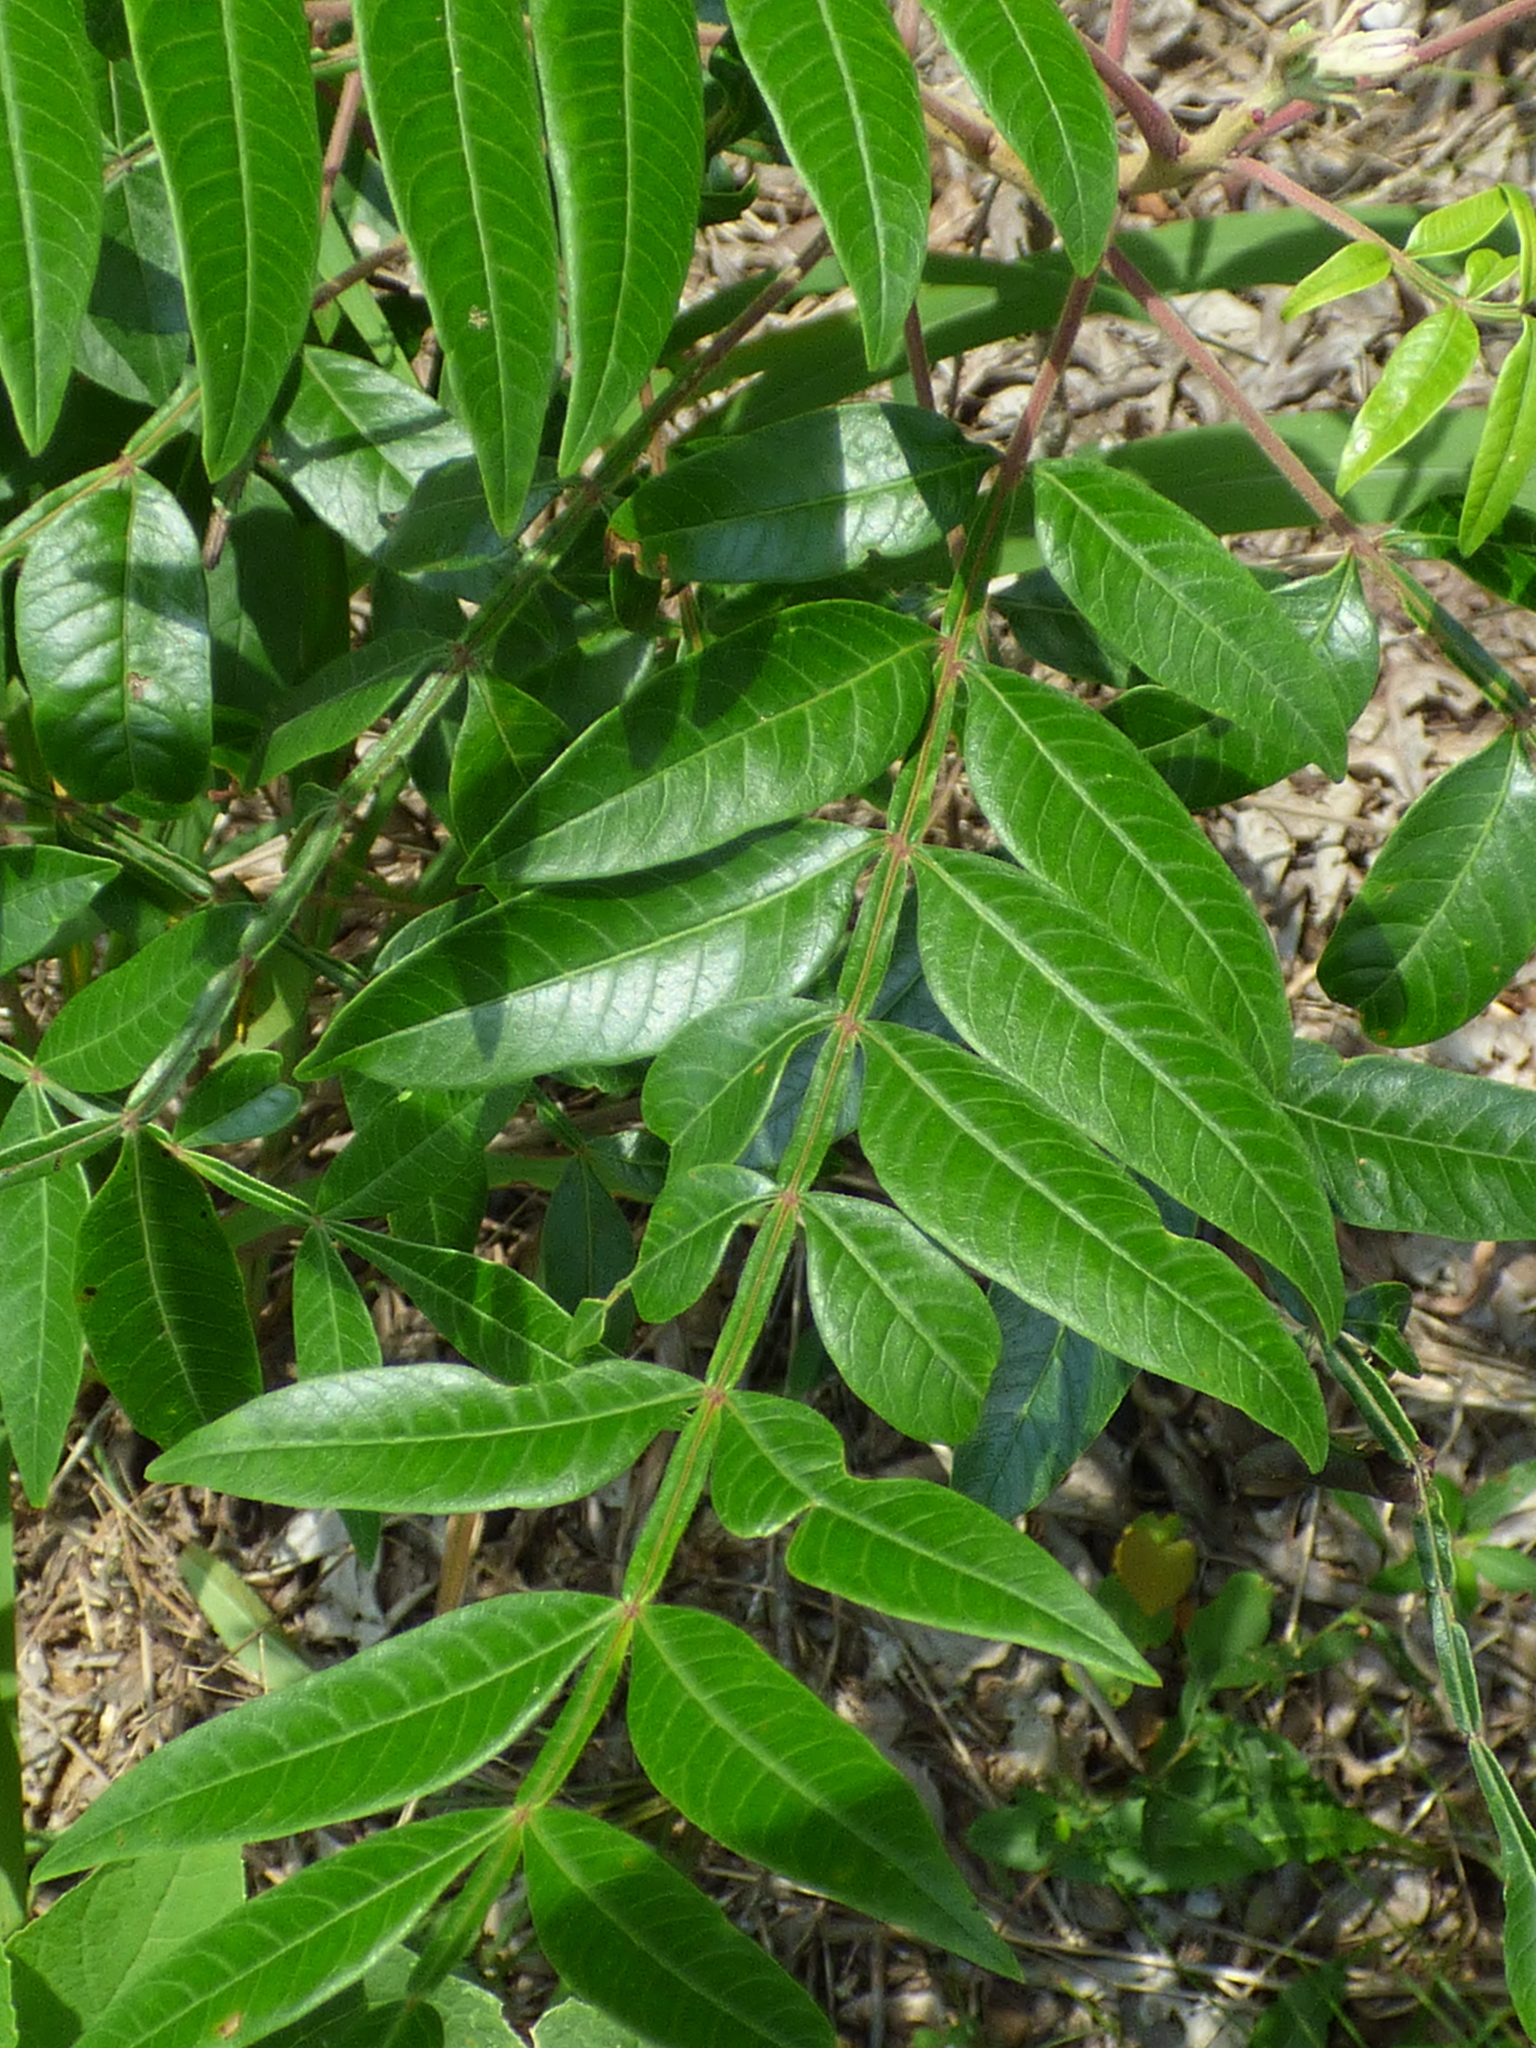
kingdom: Plantae
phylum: Tracheophyta
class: Magnoliopsida
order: Sapindales
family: Anacardiaceae
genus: Rhus
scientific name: Rhus copallina
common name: Shining sumac
